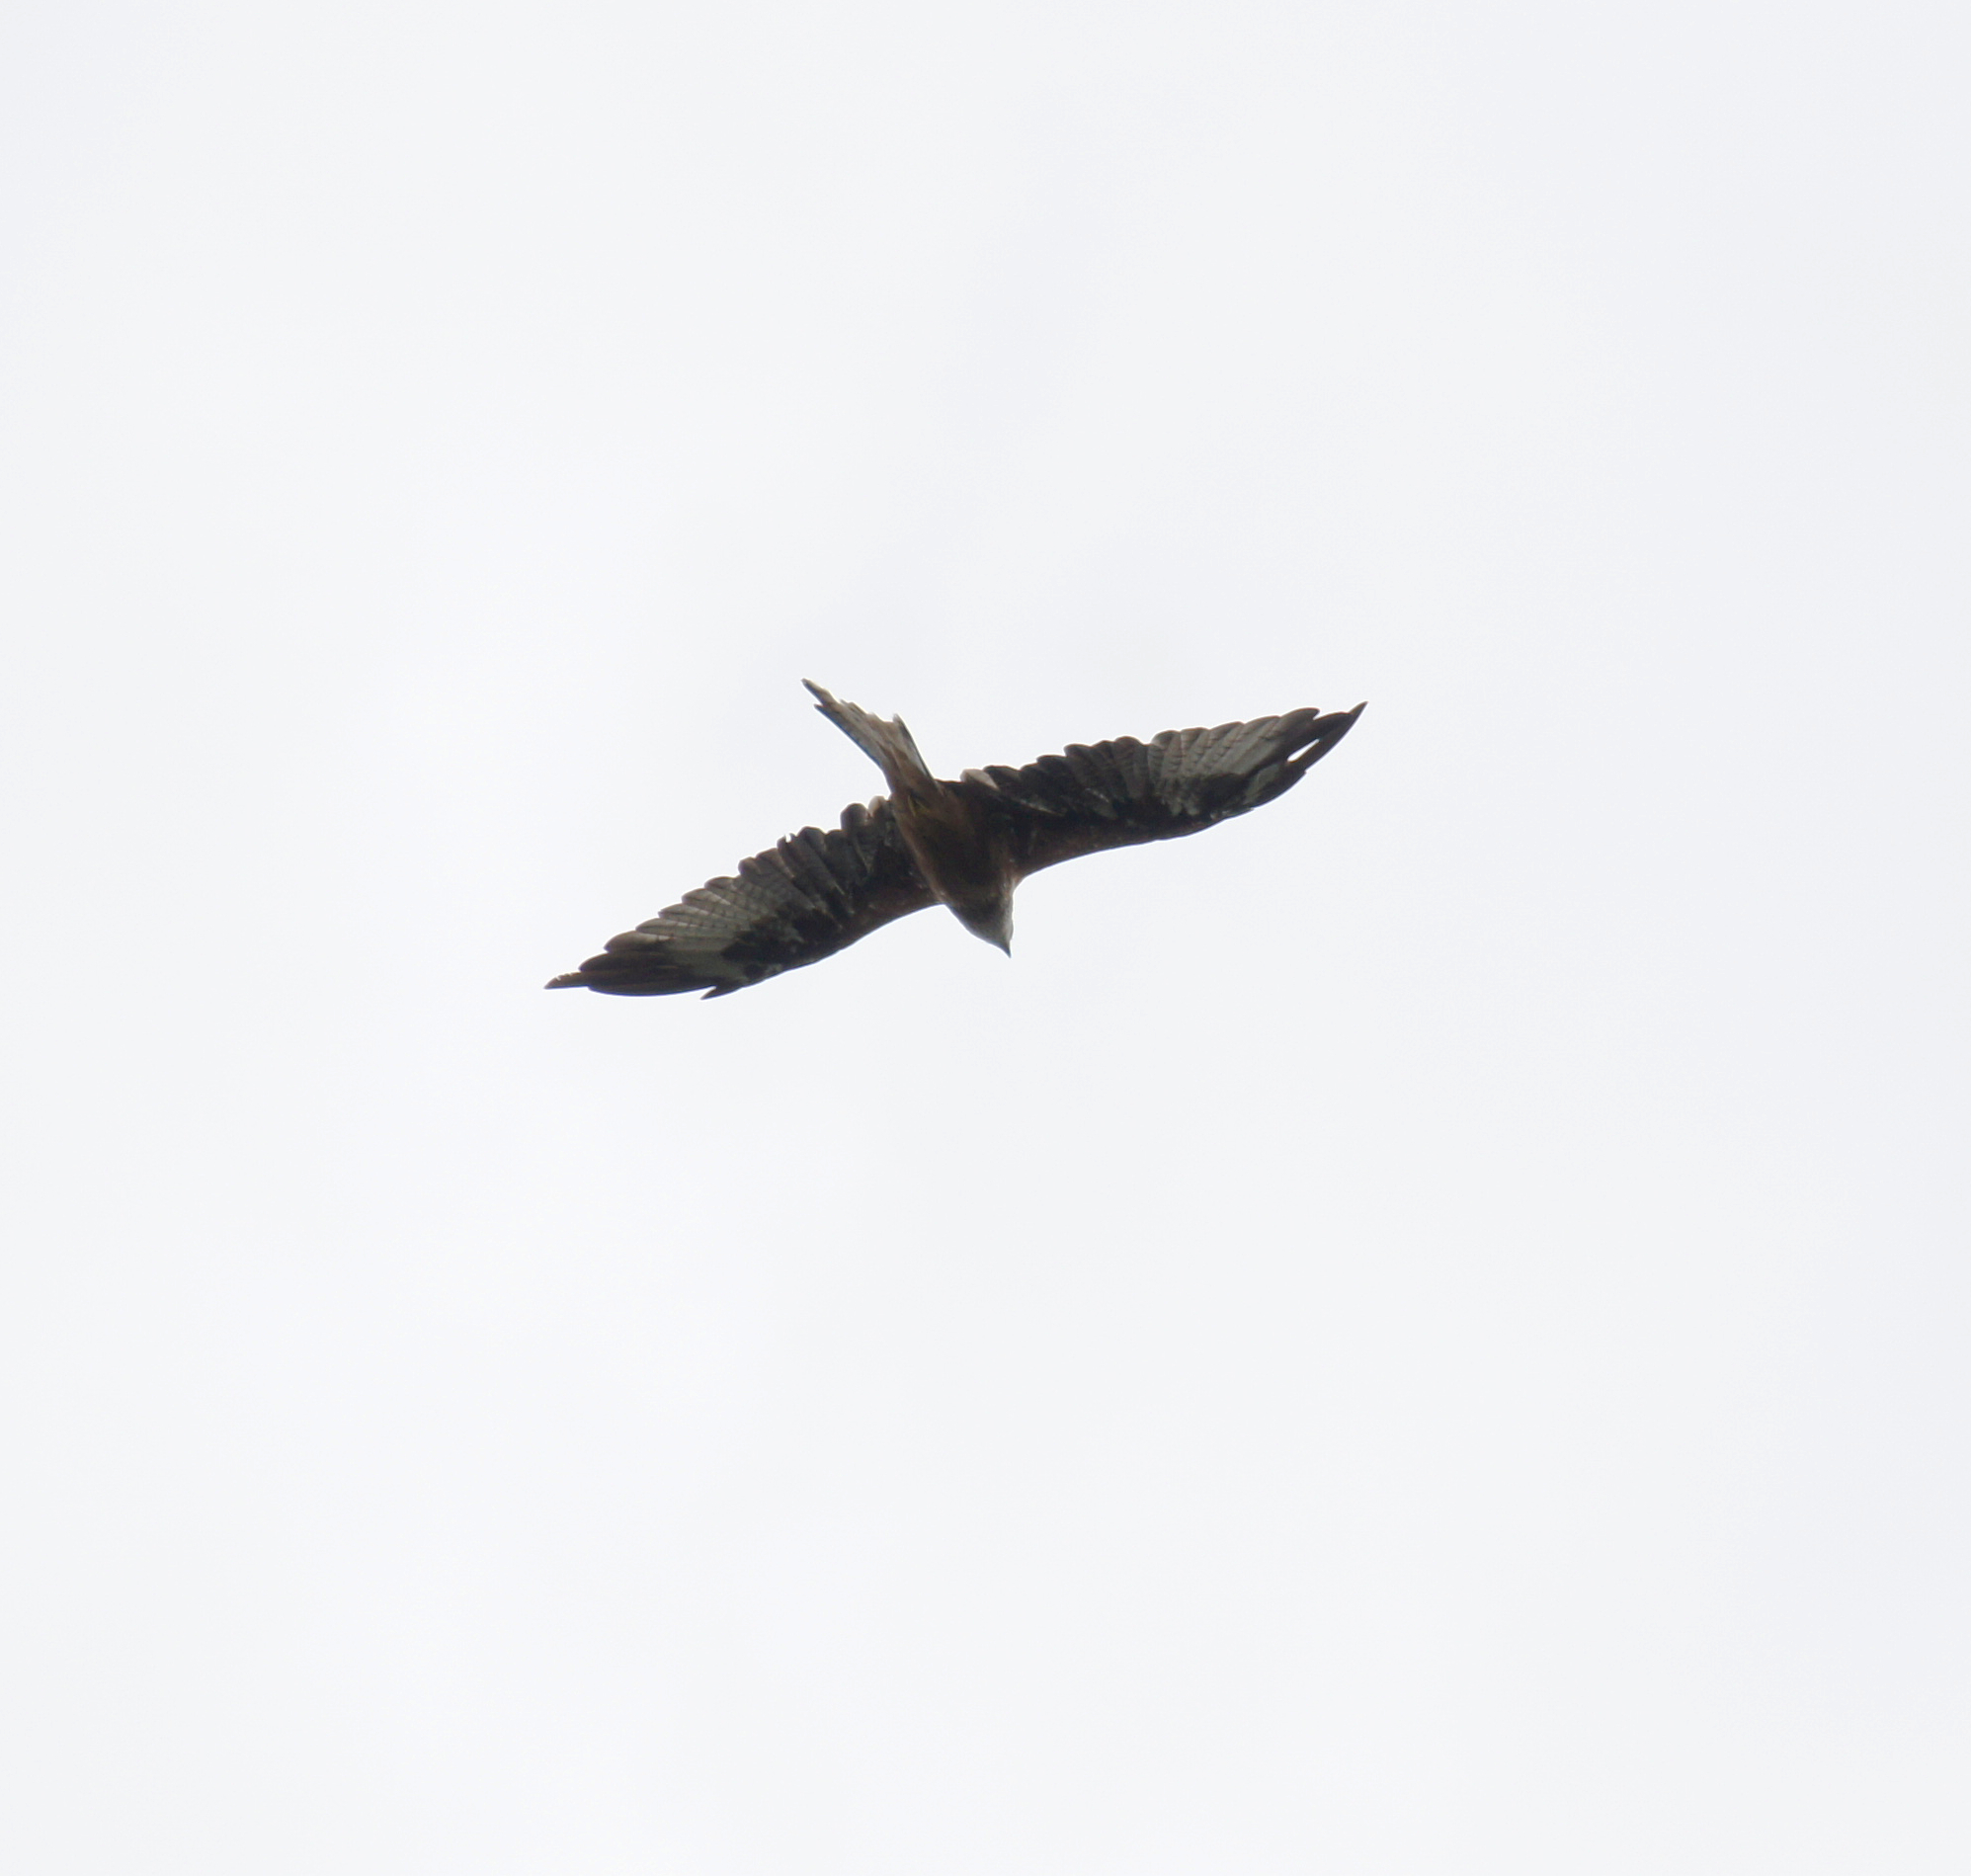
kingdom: Animalia
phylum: Chordata
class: Aves
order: Accipitriformes
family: Accipitridae
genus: Milvus
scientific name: Milvus milvus
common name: Red kite
